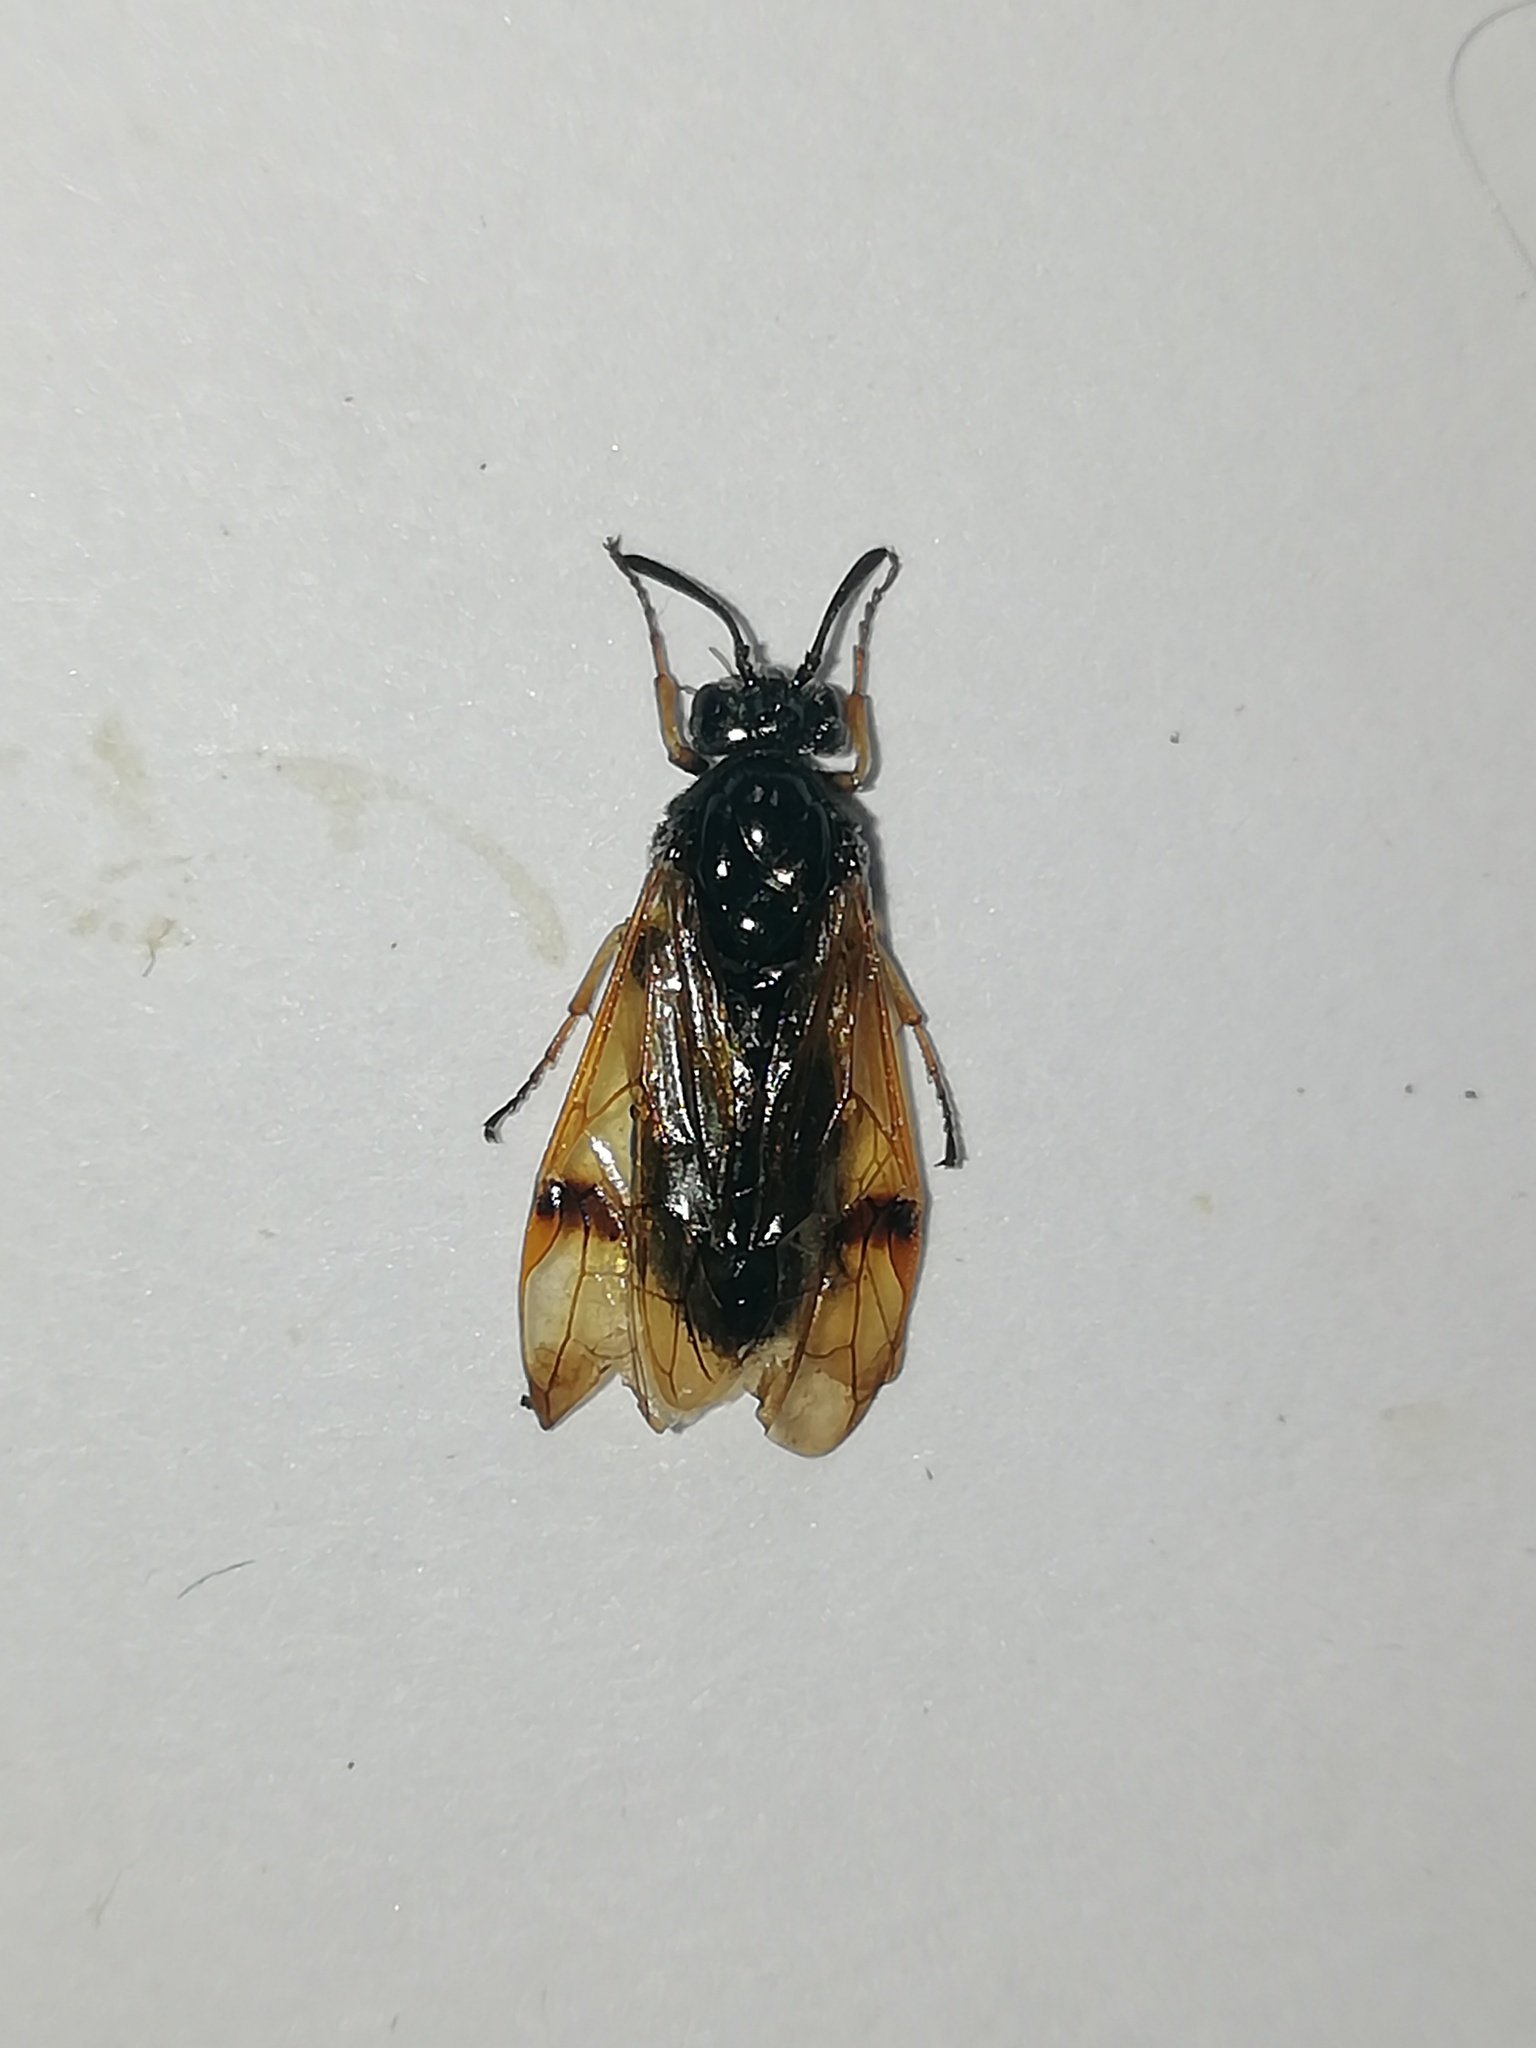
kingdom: Animalia
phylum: Arthropoda
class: Insecta
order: Hymenoptera
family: Argidae
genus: Arge
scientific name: Arge ustulata
